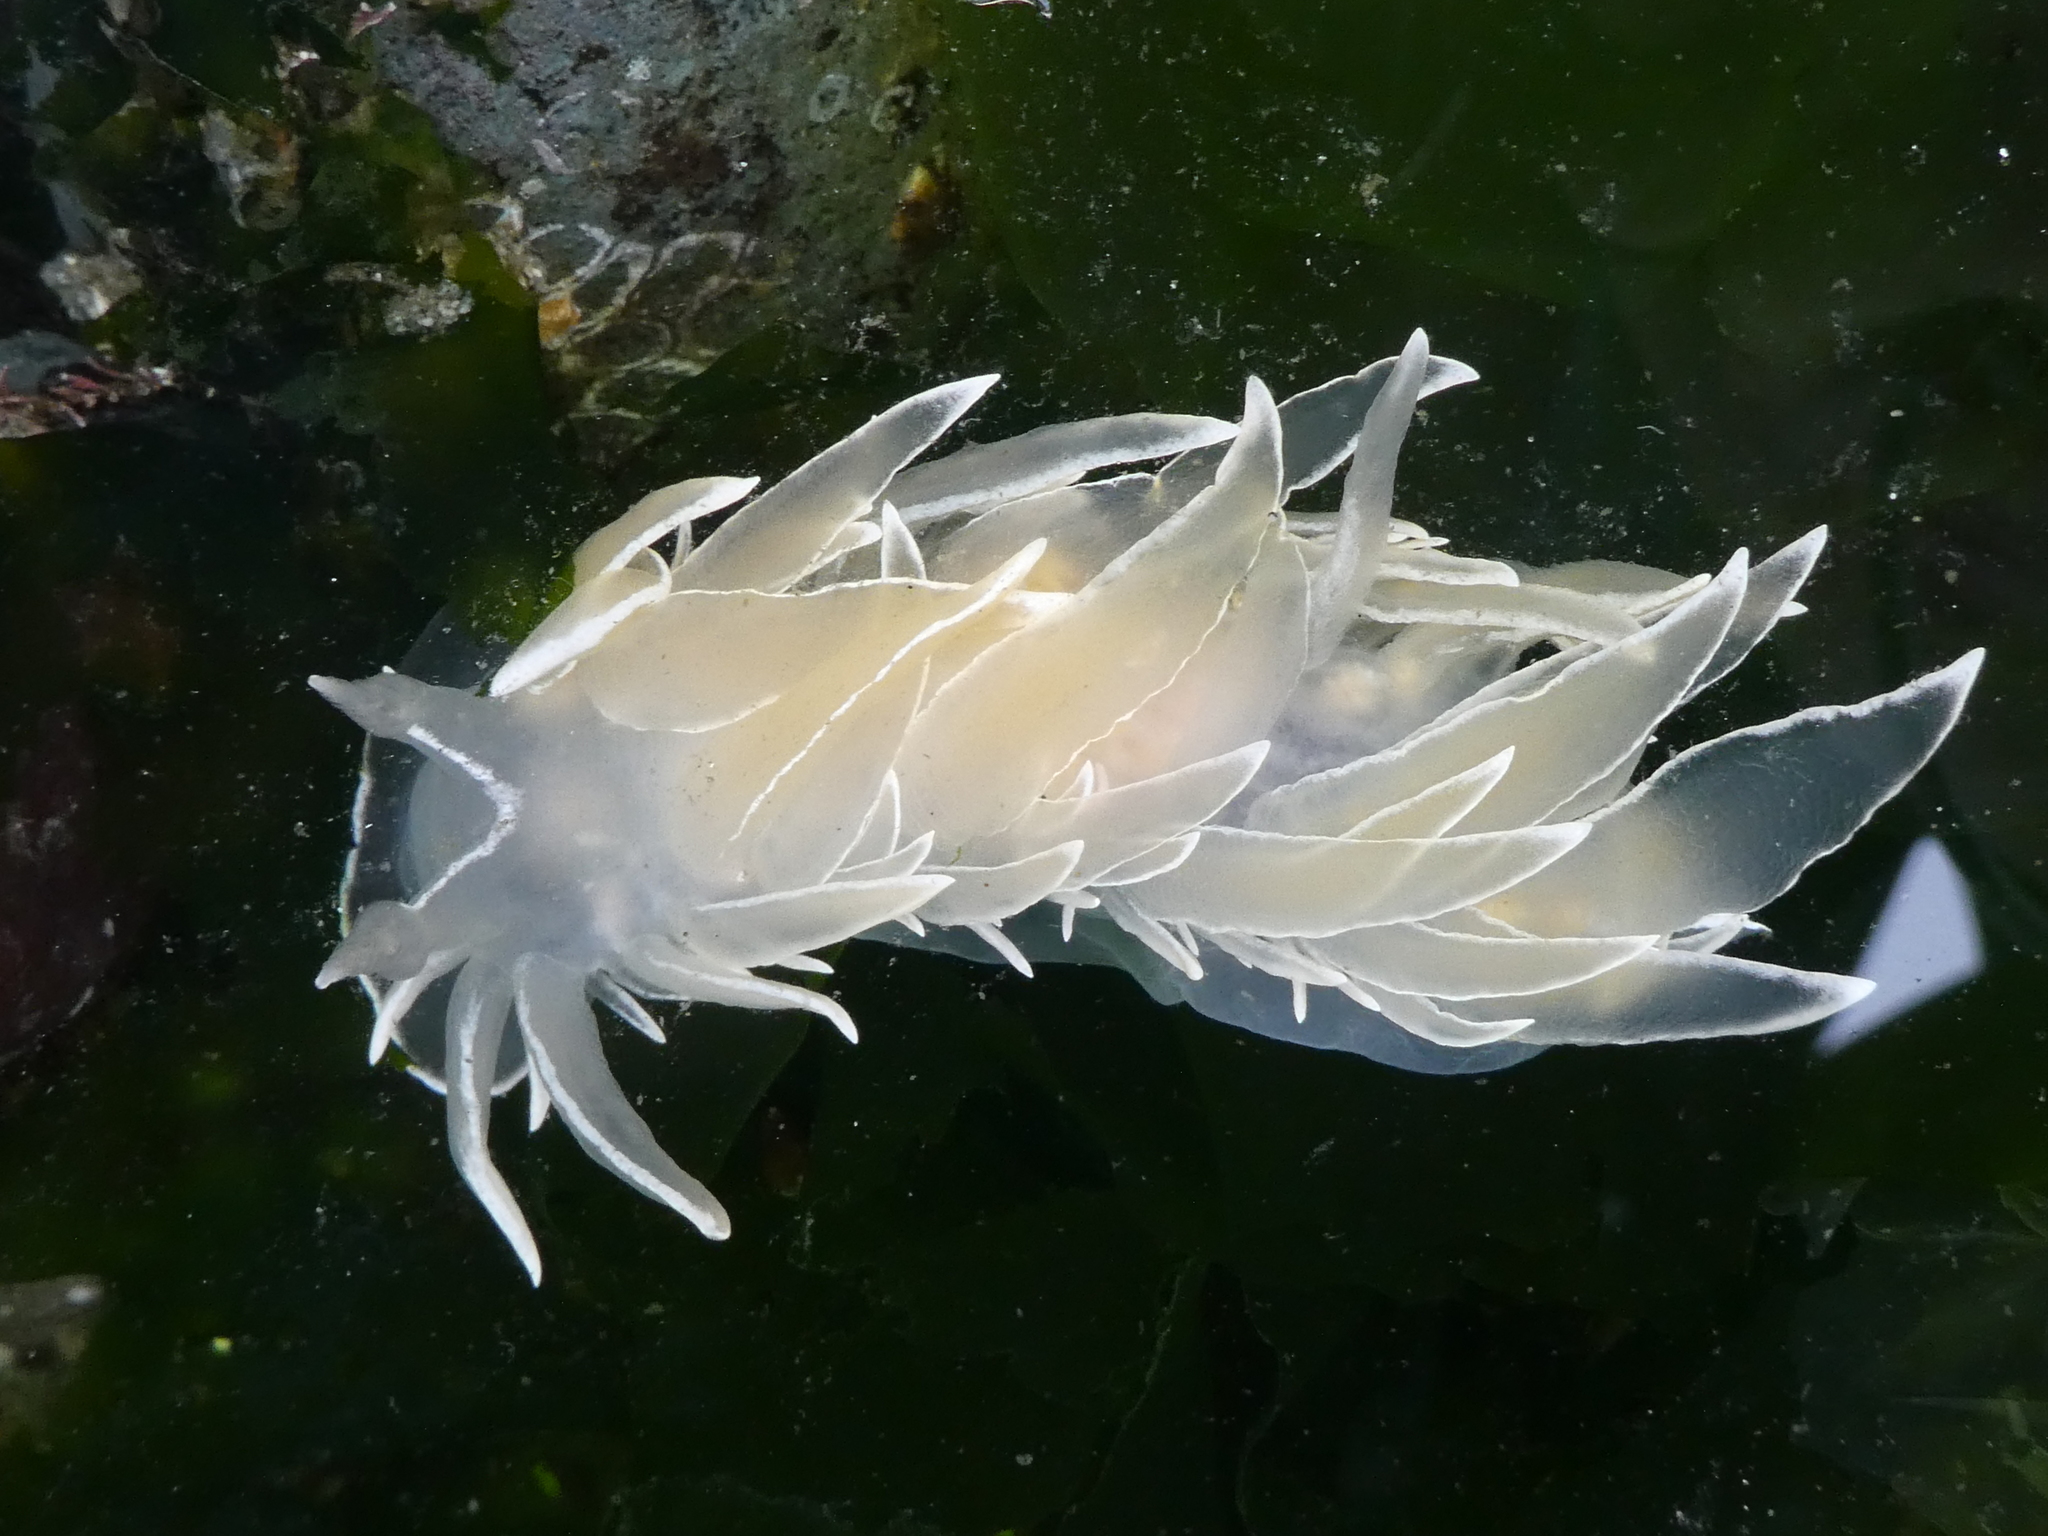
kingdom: Animalia
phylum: Mollusca
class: Gastropoda
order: Nudibranchia
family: Dironidae
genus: Dirona
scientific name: Dirona albolineata
